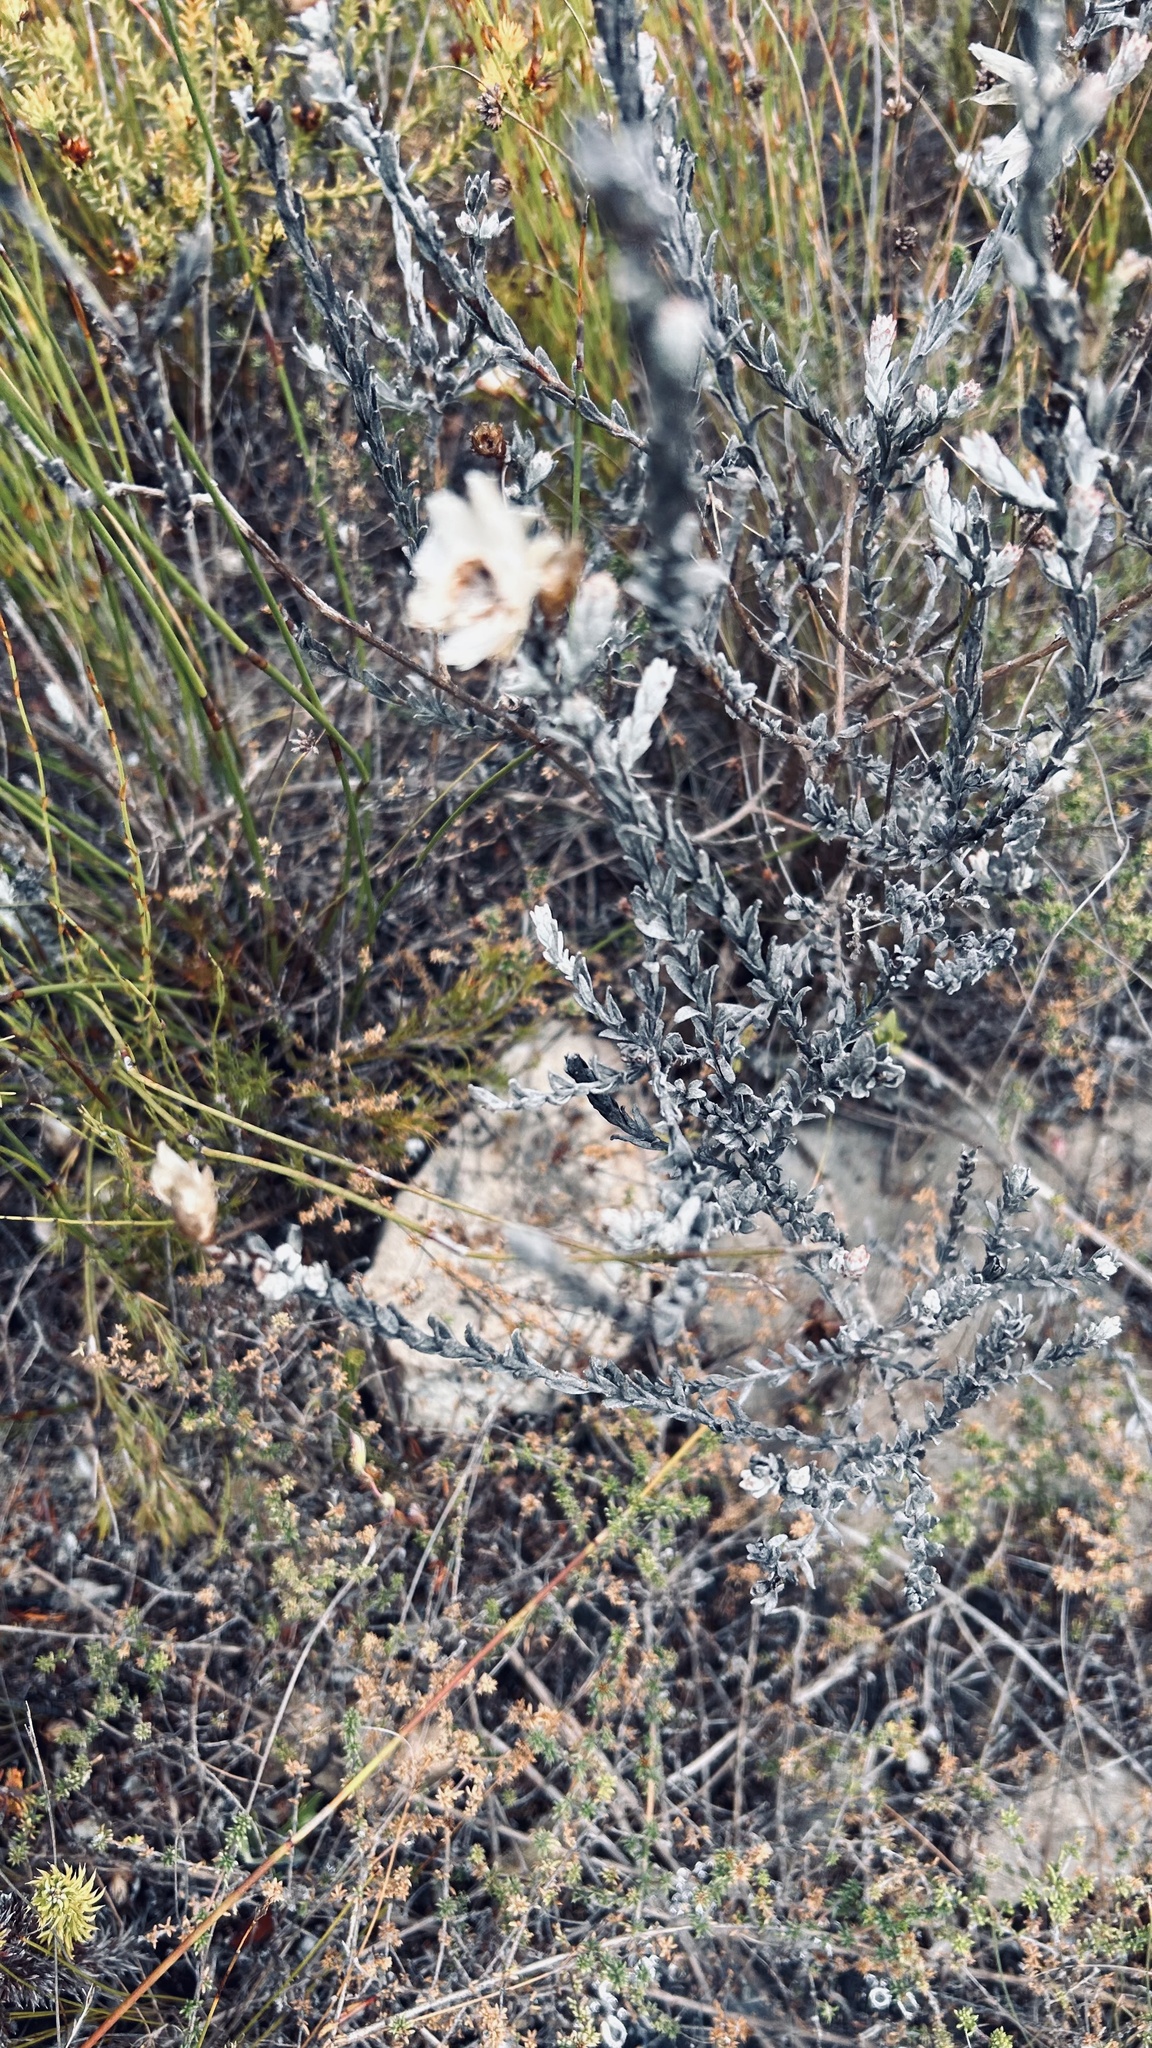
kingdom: Plantae
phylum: Tracheophyta
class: Magnoliopsida
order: Asterales
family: Asteraceae
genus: Syncarpha
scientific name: Syncarpha canescens
